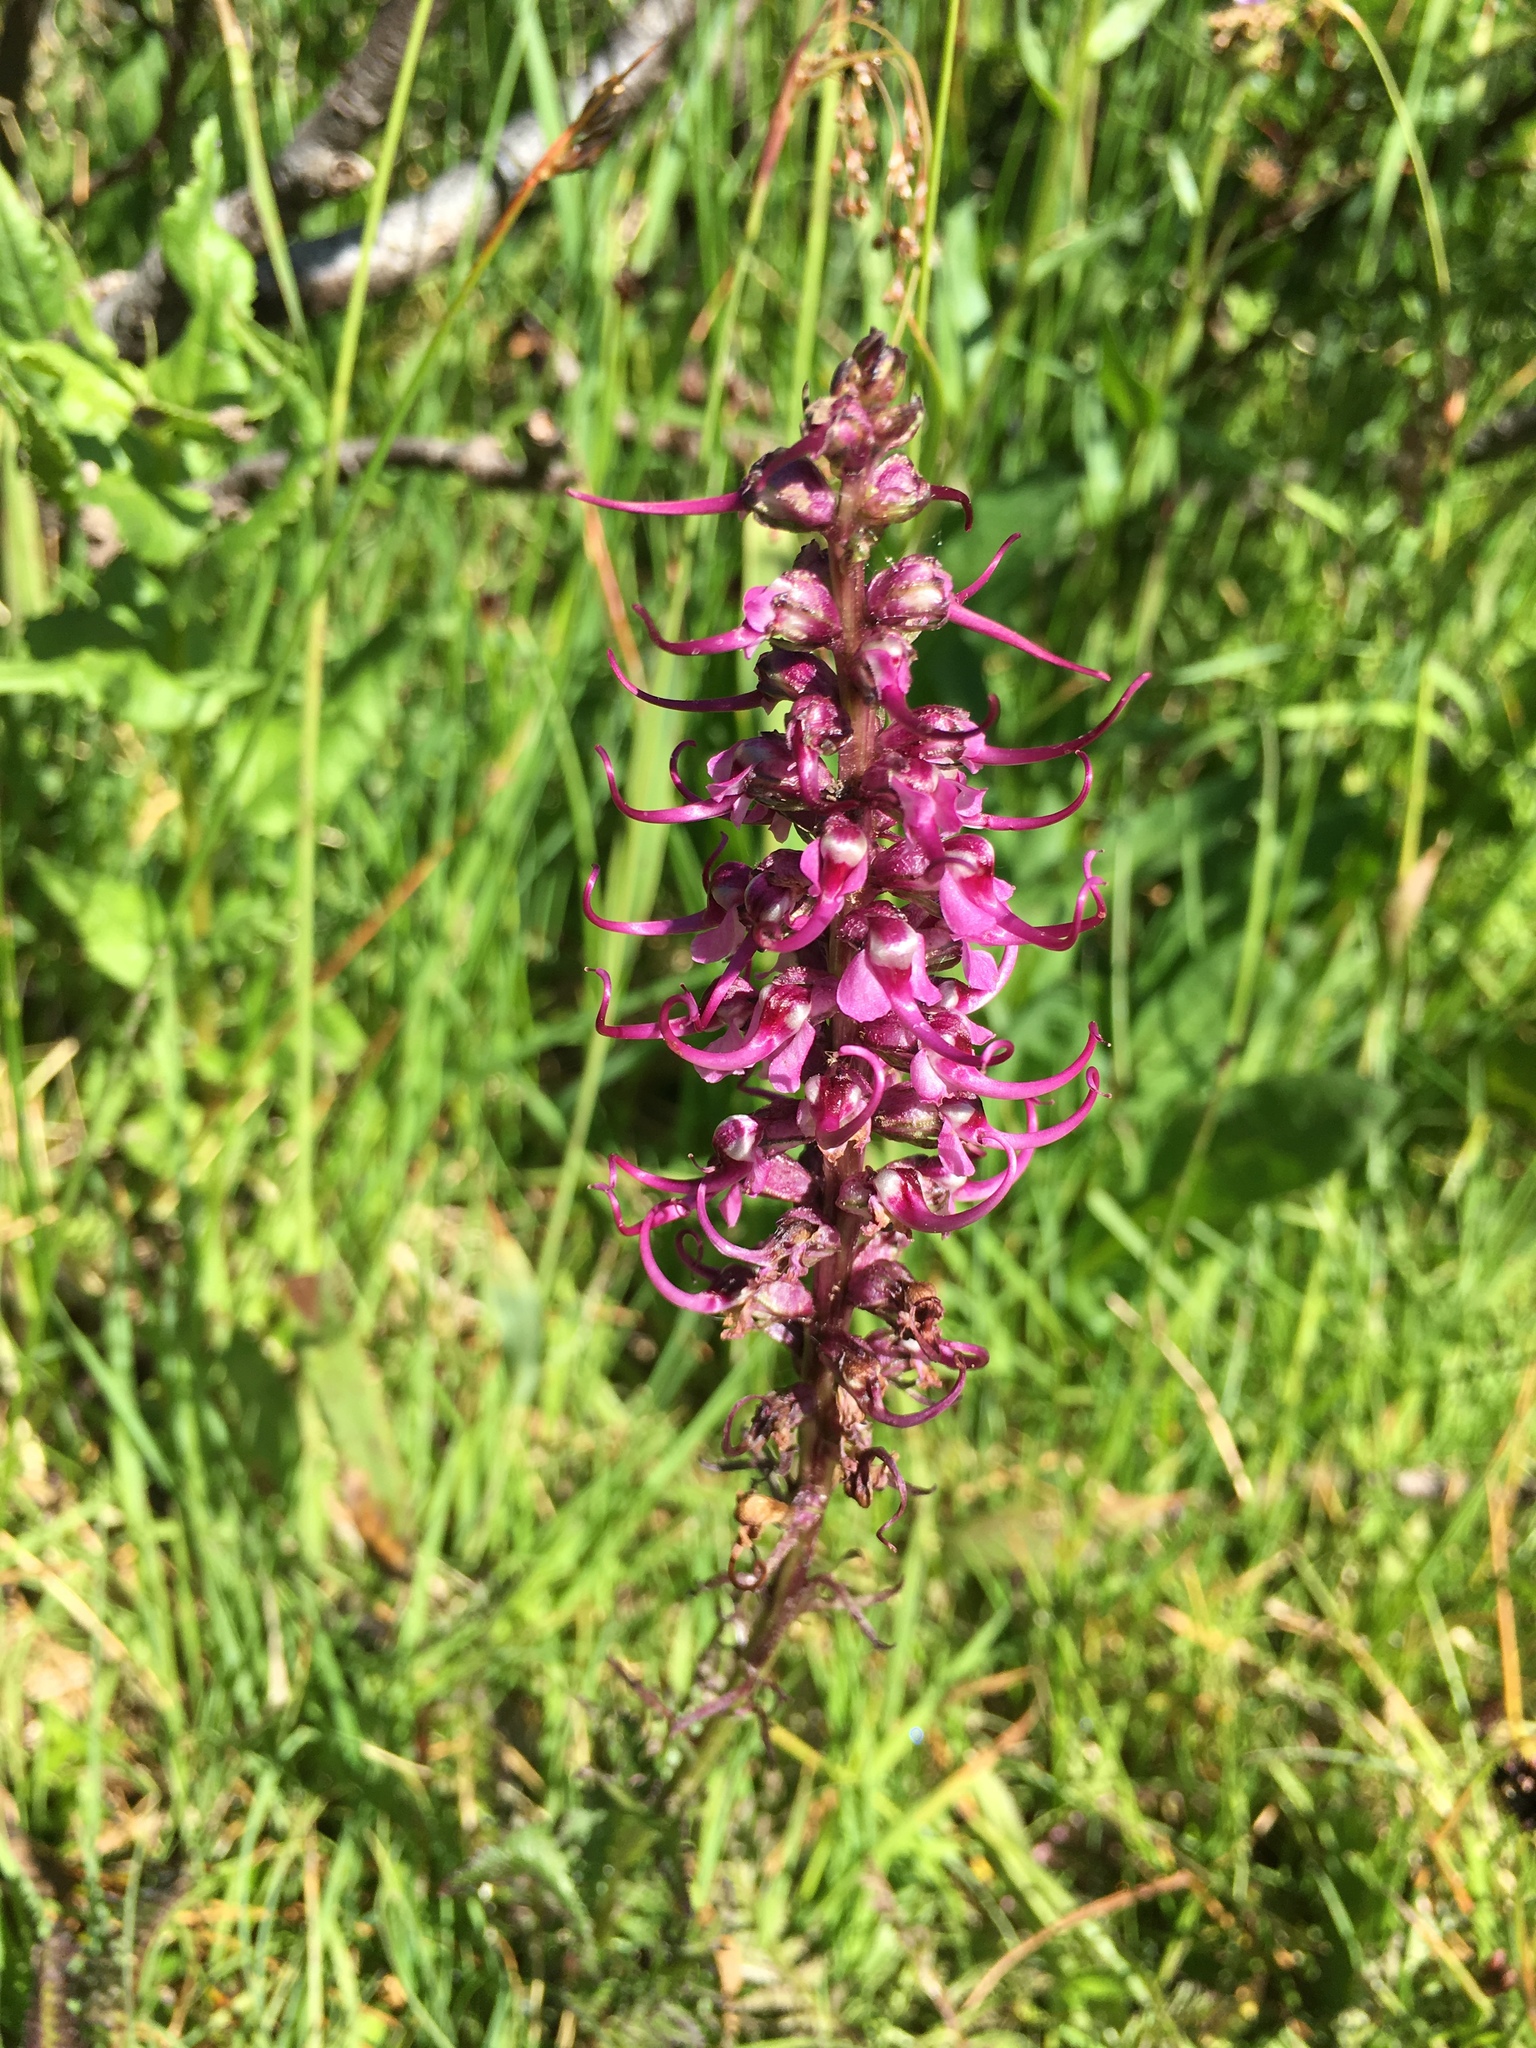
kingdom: Plantae
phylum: Tracheophyta
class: Magnoliopsida
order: Lamiales
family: Orobanchaceae
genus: Pedicularis
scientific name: Pedicularis groenlandica
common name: Elephant's-head
